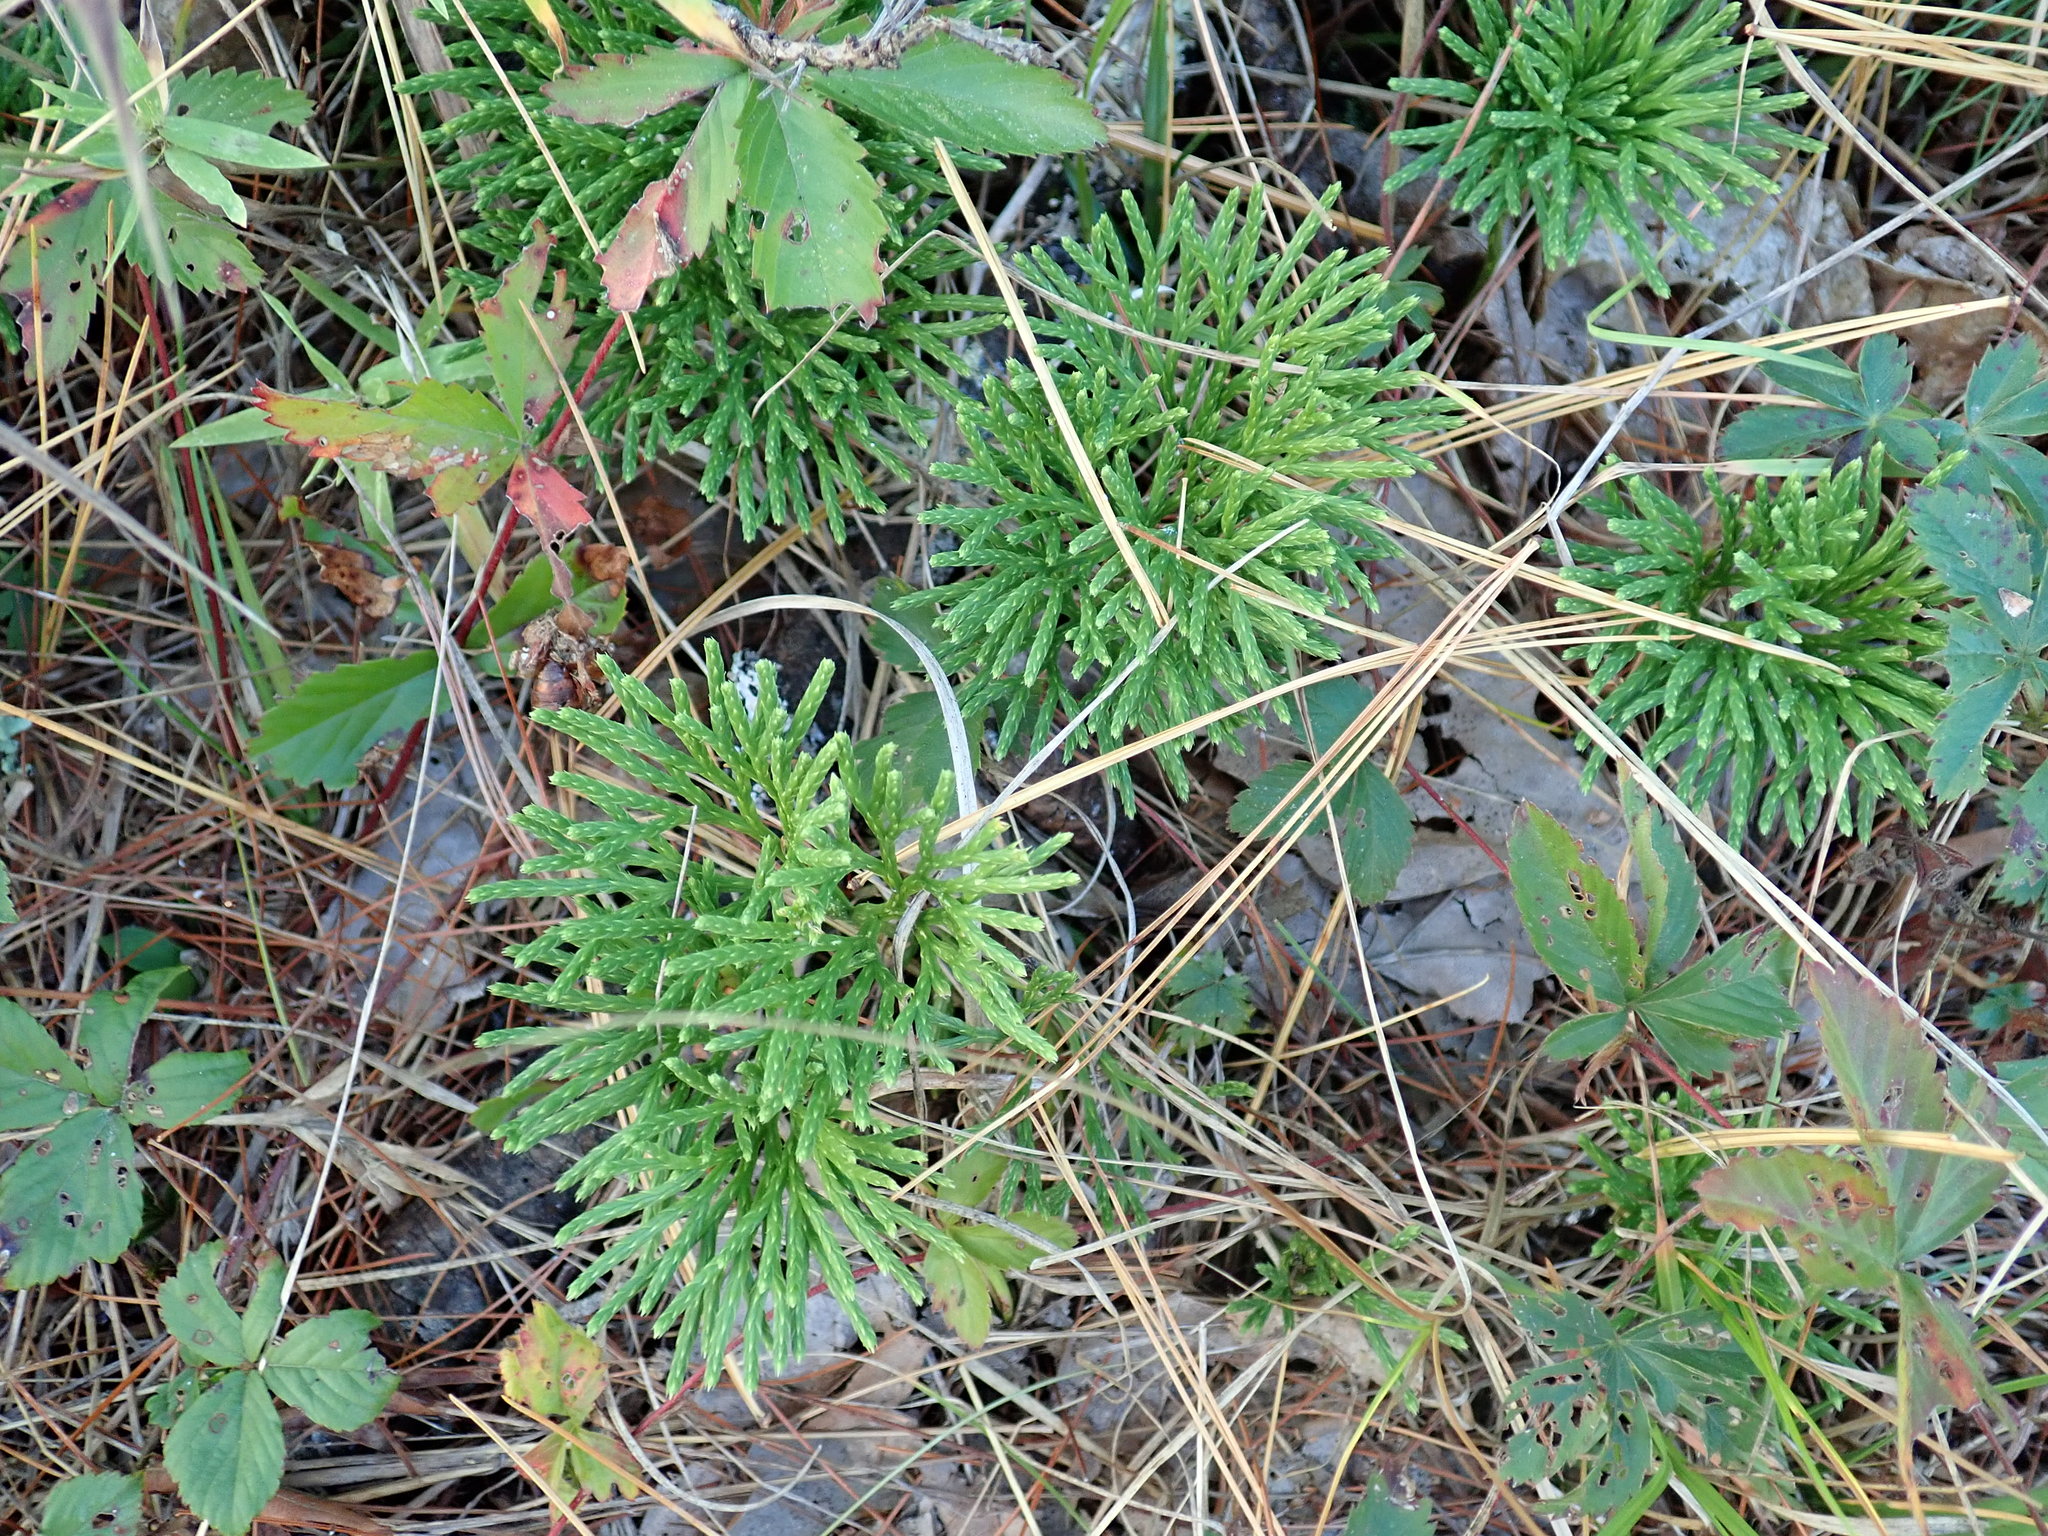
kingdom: Plantae
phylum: Tracheophyta
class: Lycopodiopsida
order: Lycopodiales
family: Lycopodiaceae
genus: Diphasiastrum
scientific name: Diphasiastrum digitatum
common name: Southern running-pine
